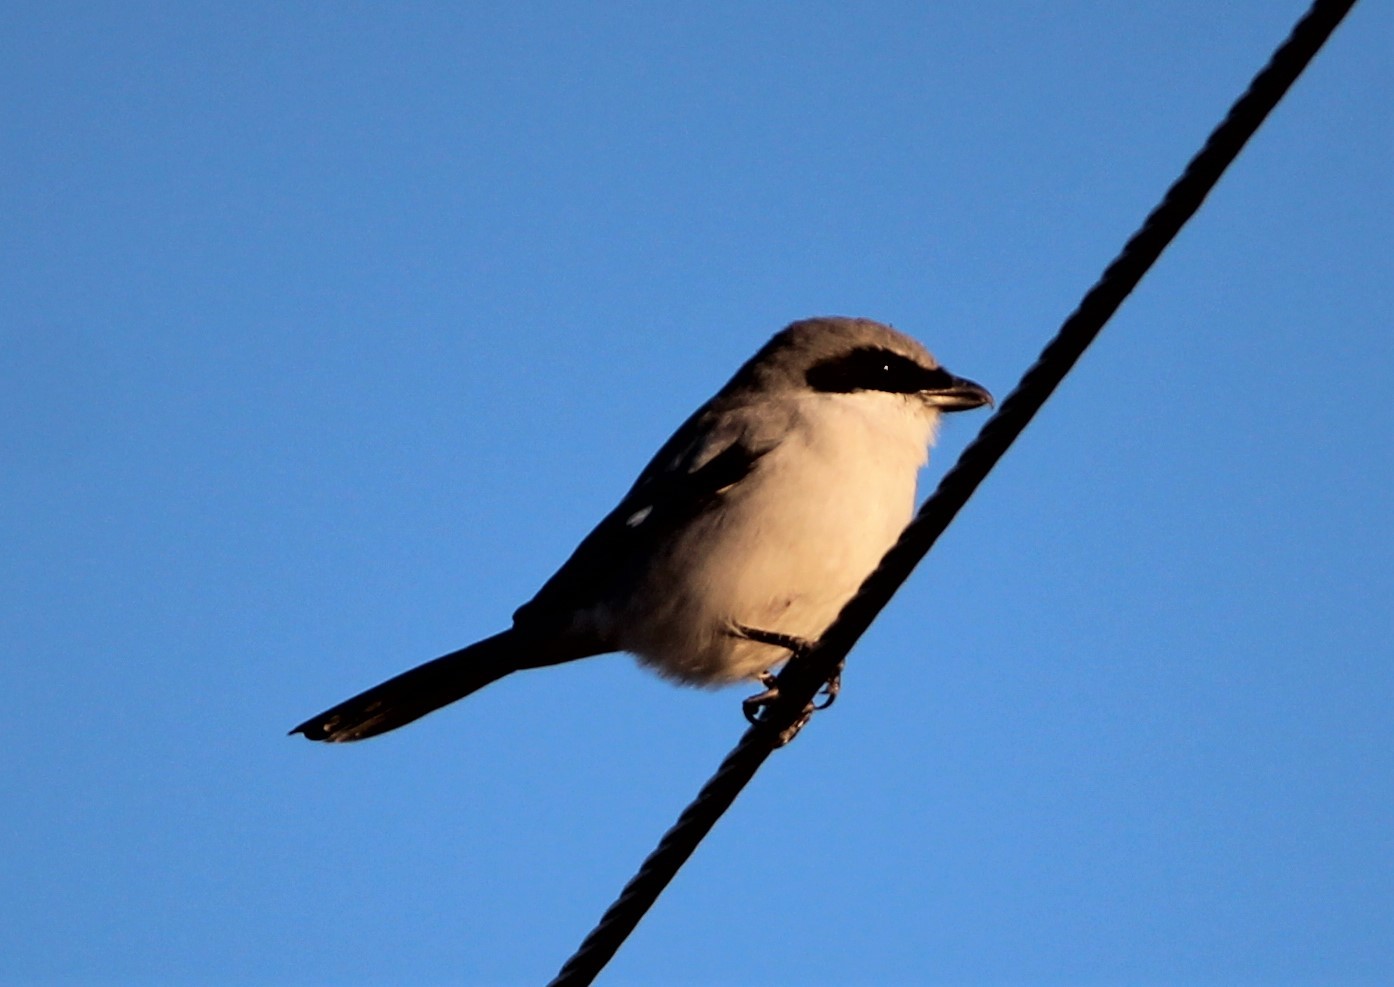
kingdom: Animalia
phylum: Chordata
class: Aves
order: Passeriformes
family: Laniidae
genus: Lanius
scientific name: Lanius ludovicianus
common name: Loggerhead shrike
